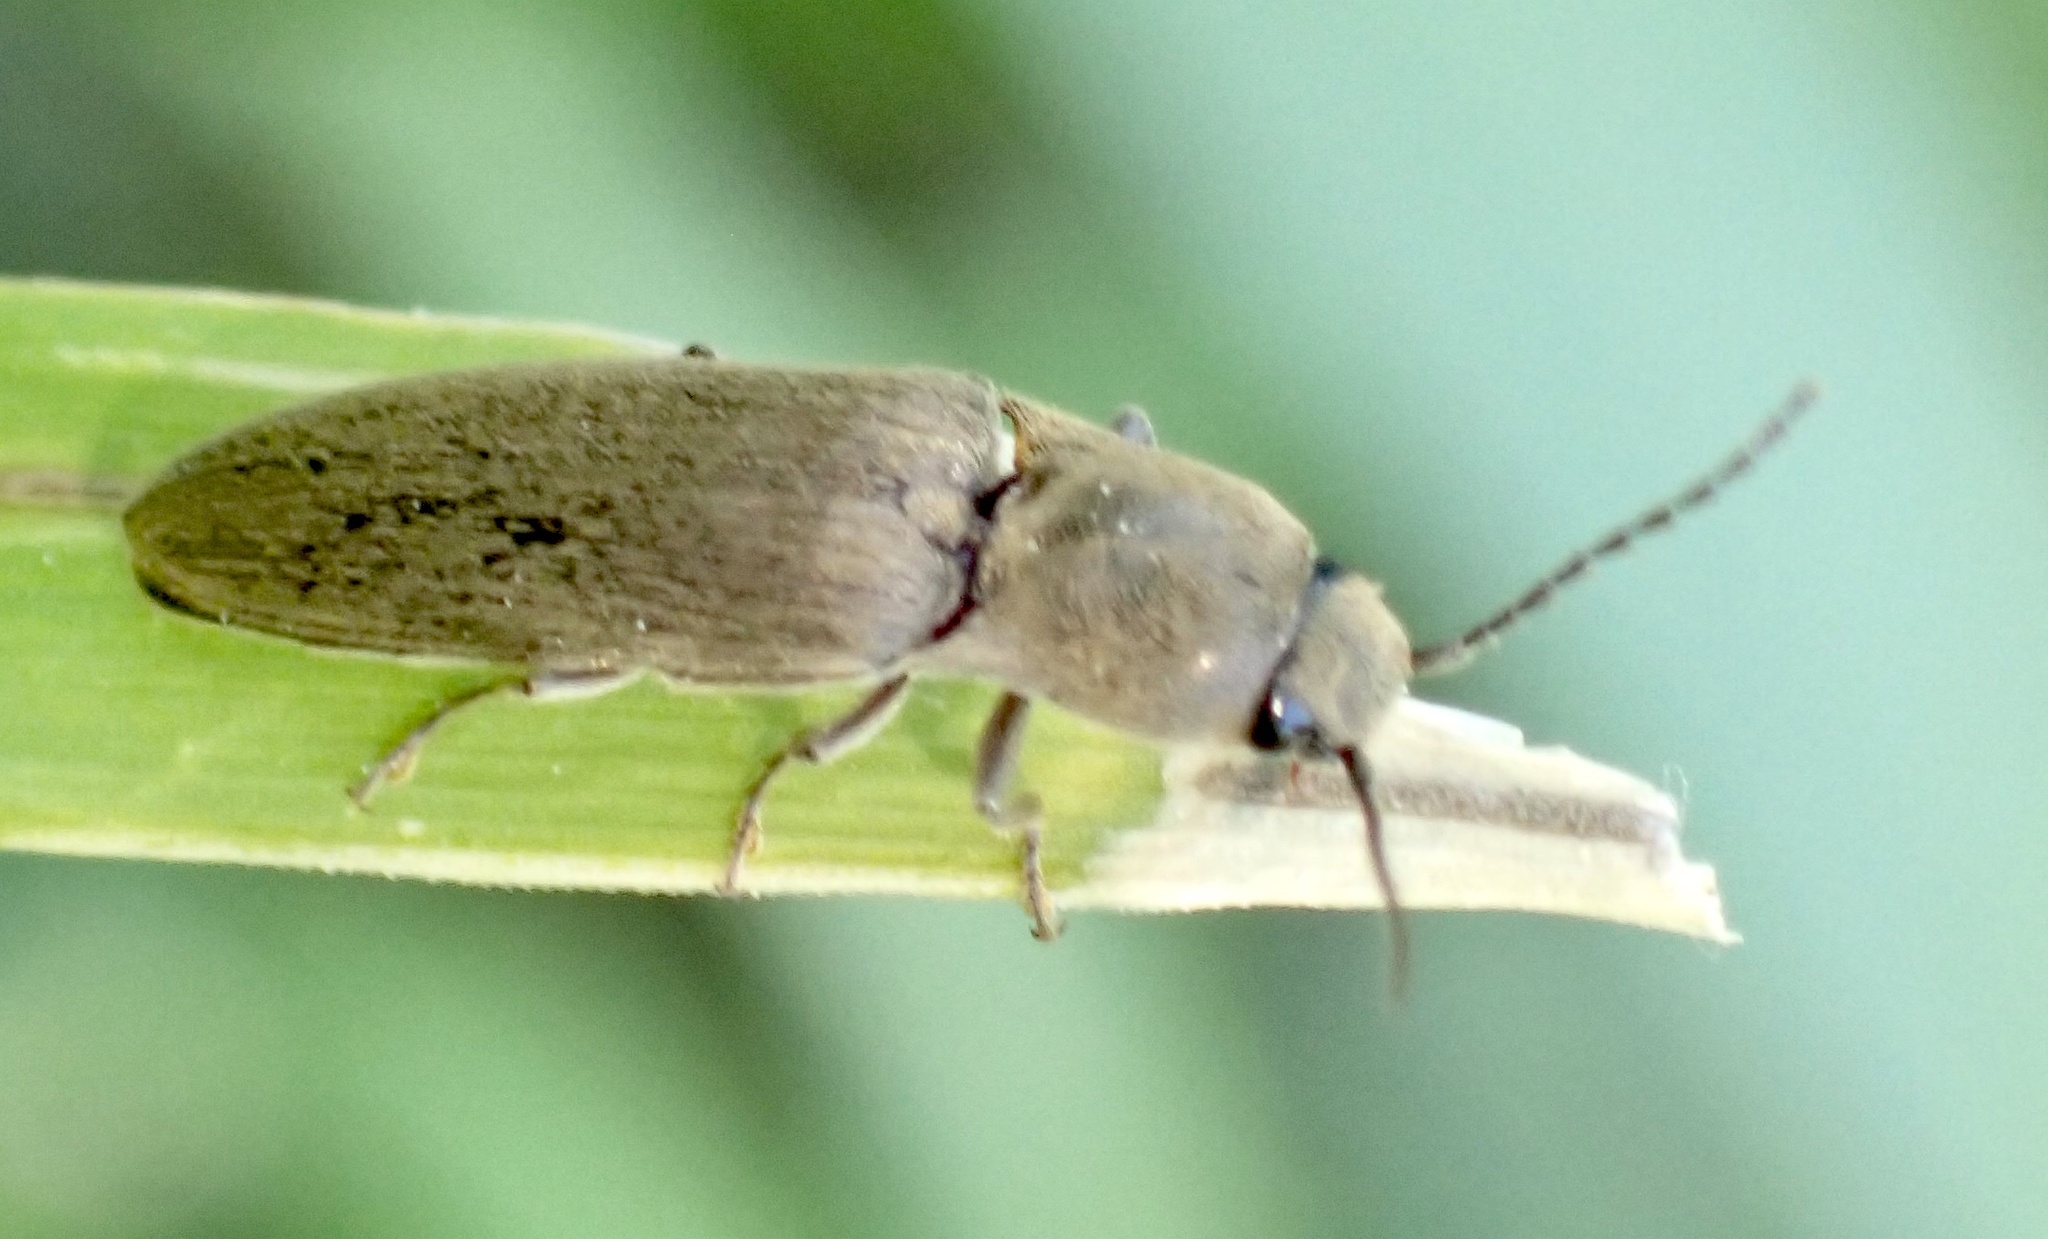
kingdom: Animalia
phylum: Arthropoda
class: Insecta
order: Coleoptera
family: Elateridae
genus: Synaptus
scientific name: Synaptus filiformis
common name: Hairy click beetle
